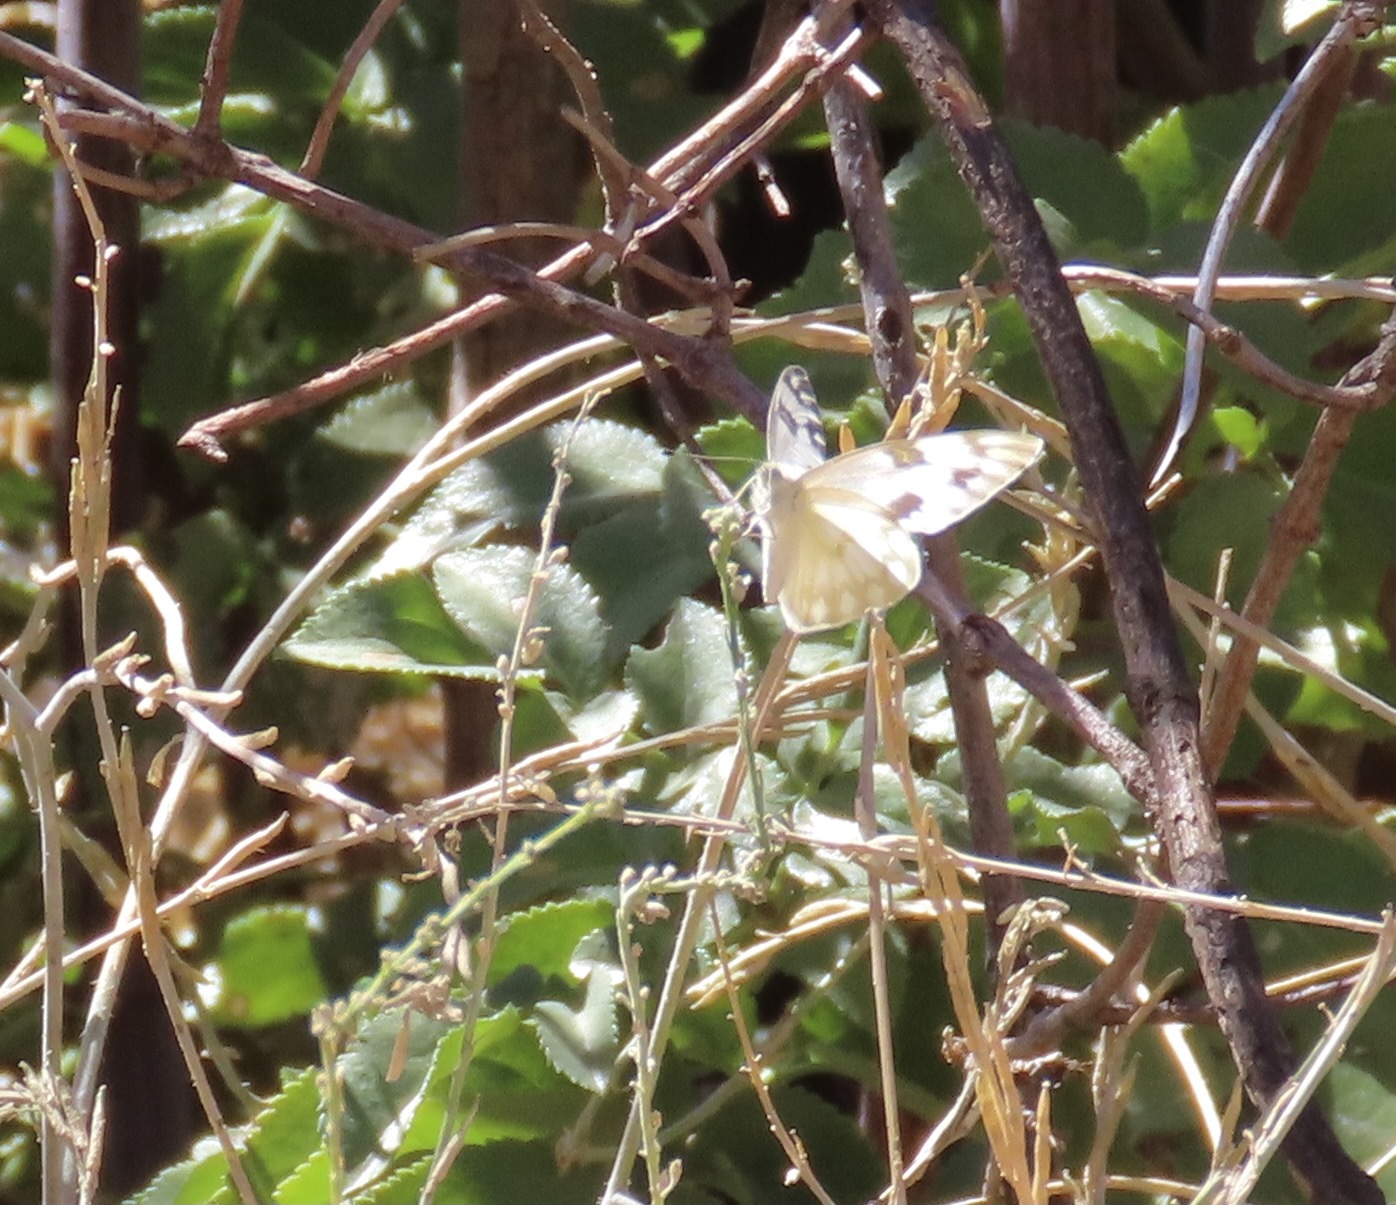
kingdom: Animalia
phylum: Arthropoda
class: Insecta
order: Lepidoptera
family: Pieridae
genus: Pontia
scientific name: Pontia protodice
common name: Checkered white
